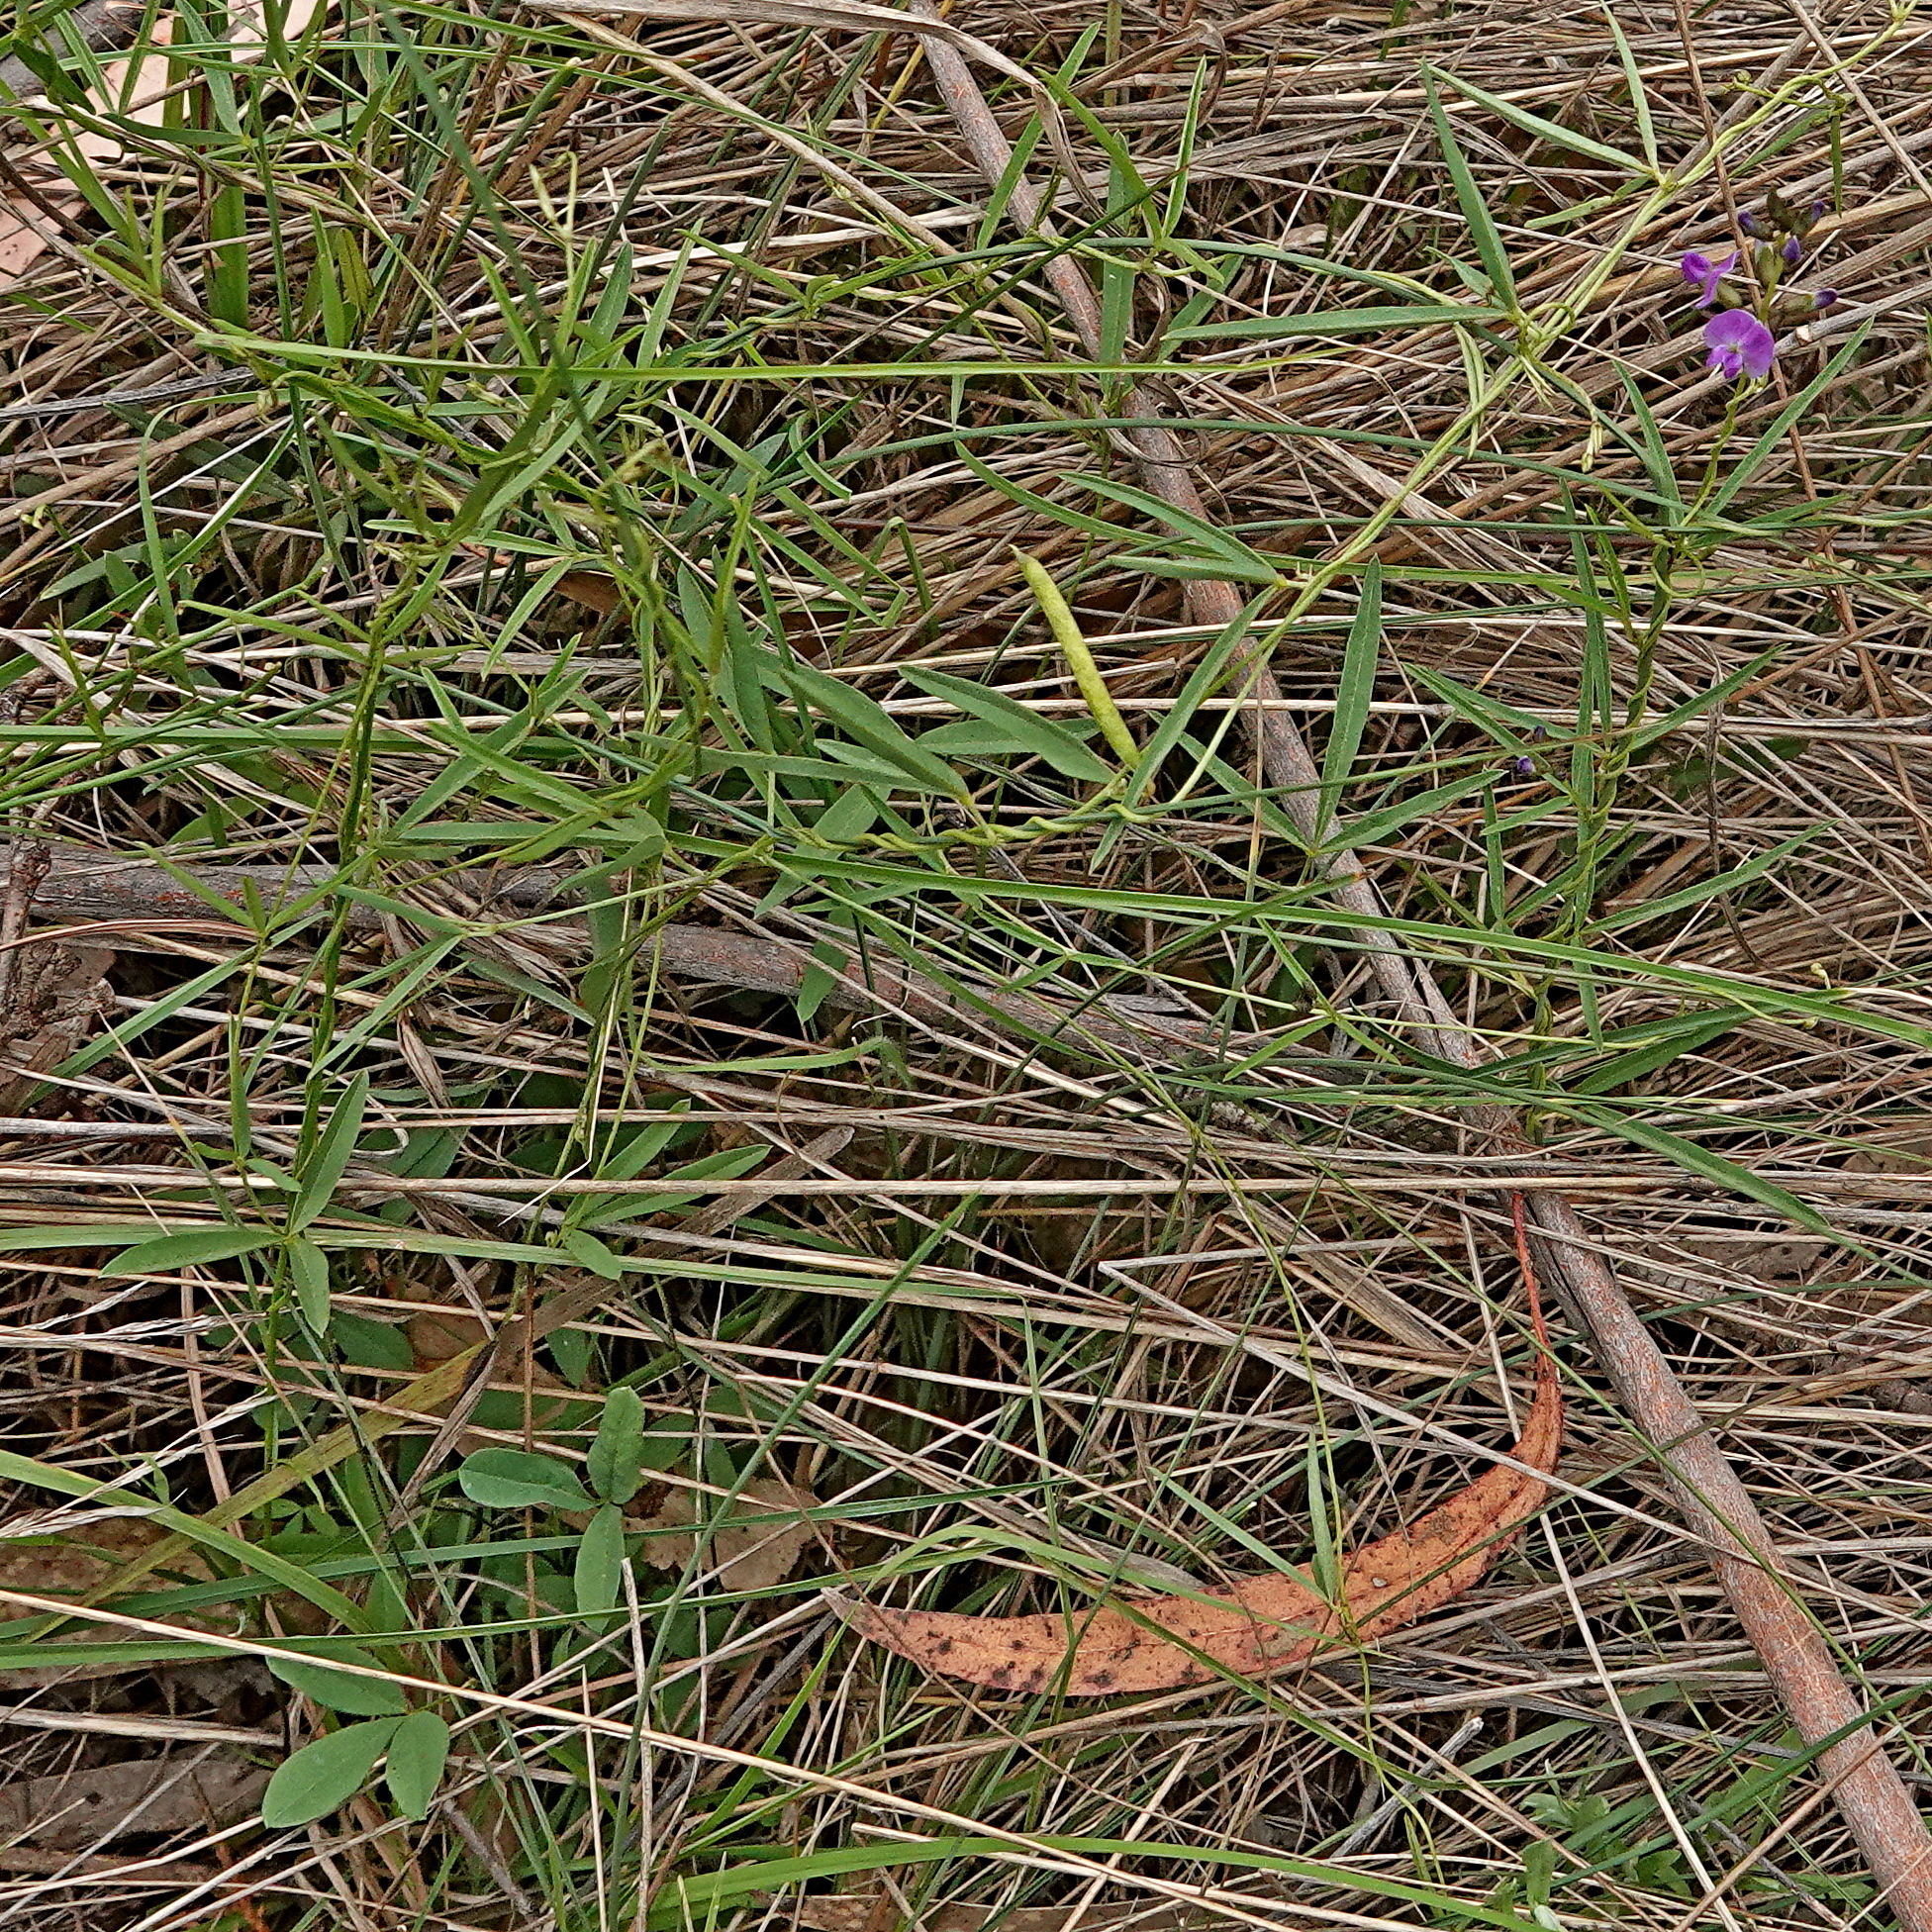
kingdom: Plantae
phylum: Tracheophyta
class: Magnoliopsida
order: Fabales
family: Fabaceae
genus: Glycine
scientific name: Glycine clandestina
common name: Twining glycine
